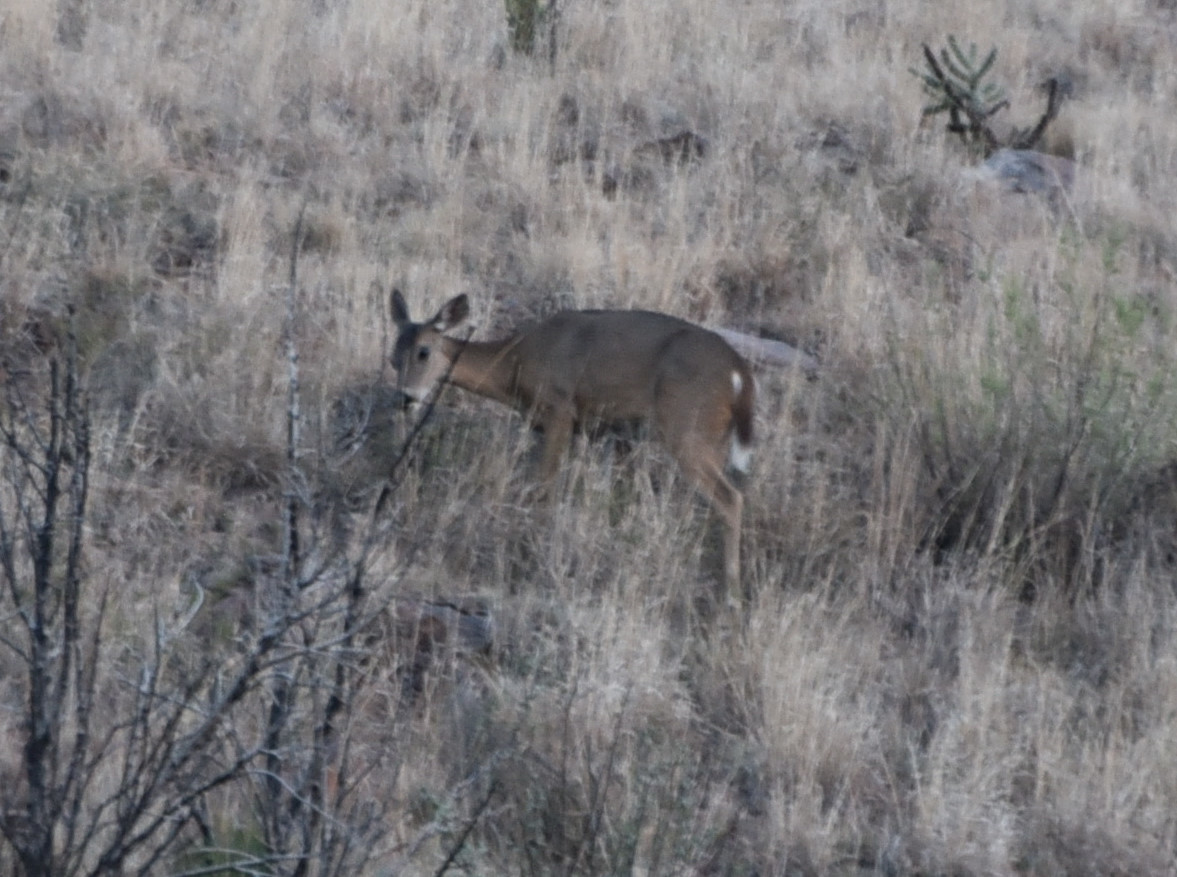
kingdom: Animalia
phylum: Chordata
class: Mammalia
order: Artiodactyla
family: Cervidae
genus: Odocoileus
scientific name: Odocoileus virginianus
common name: White-tailed deer
